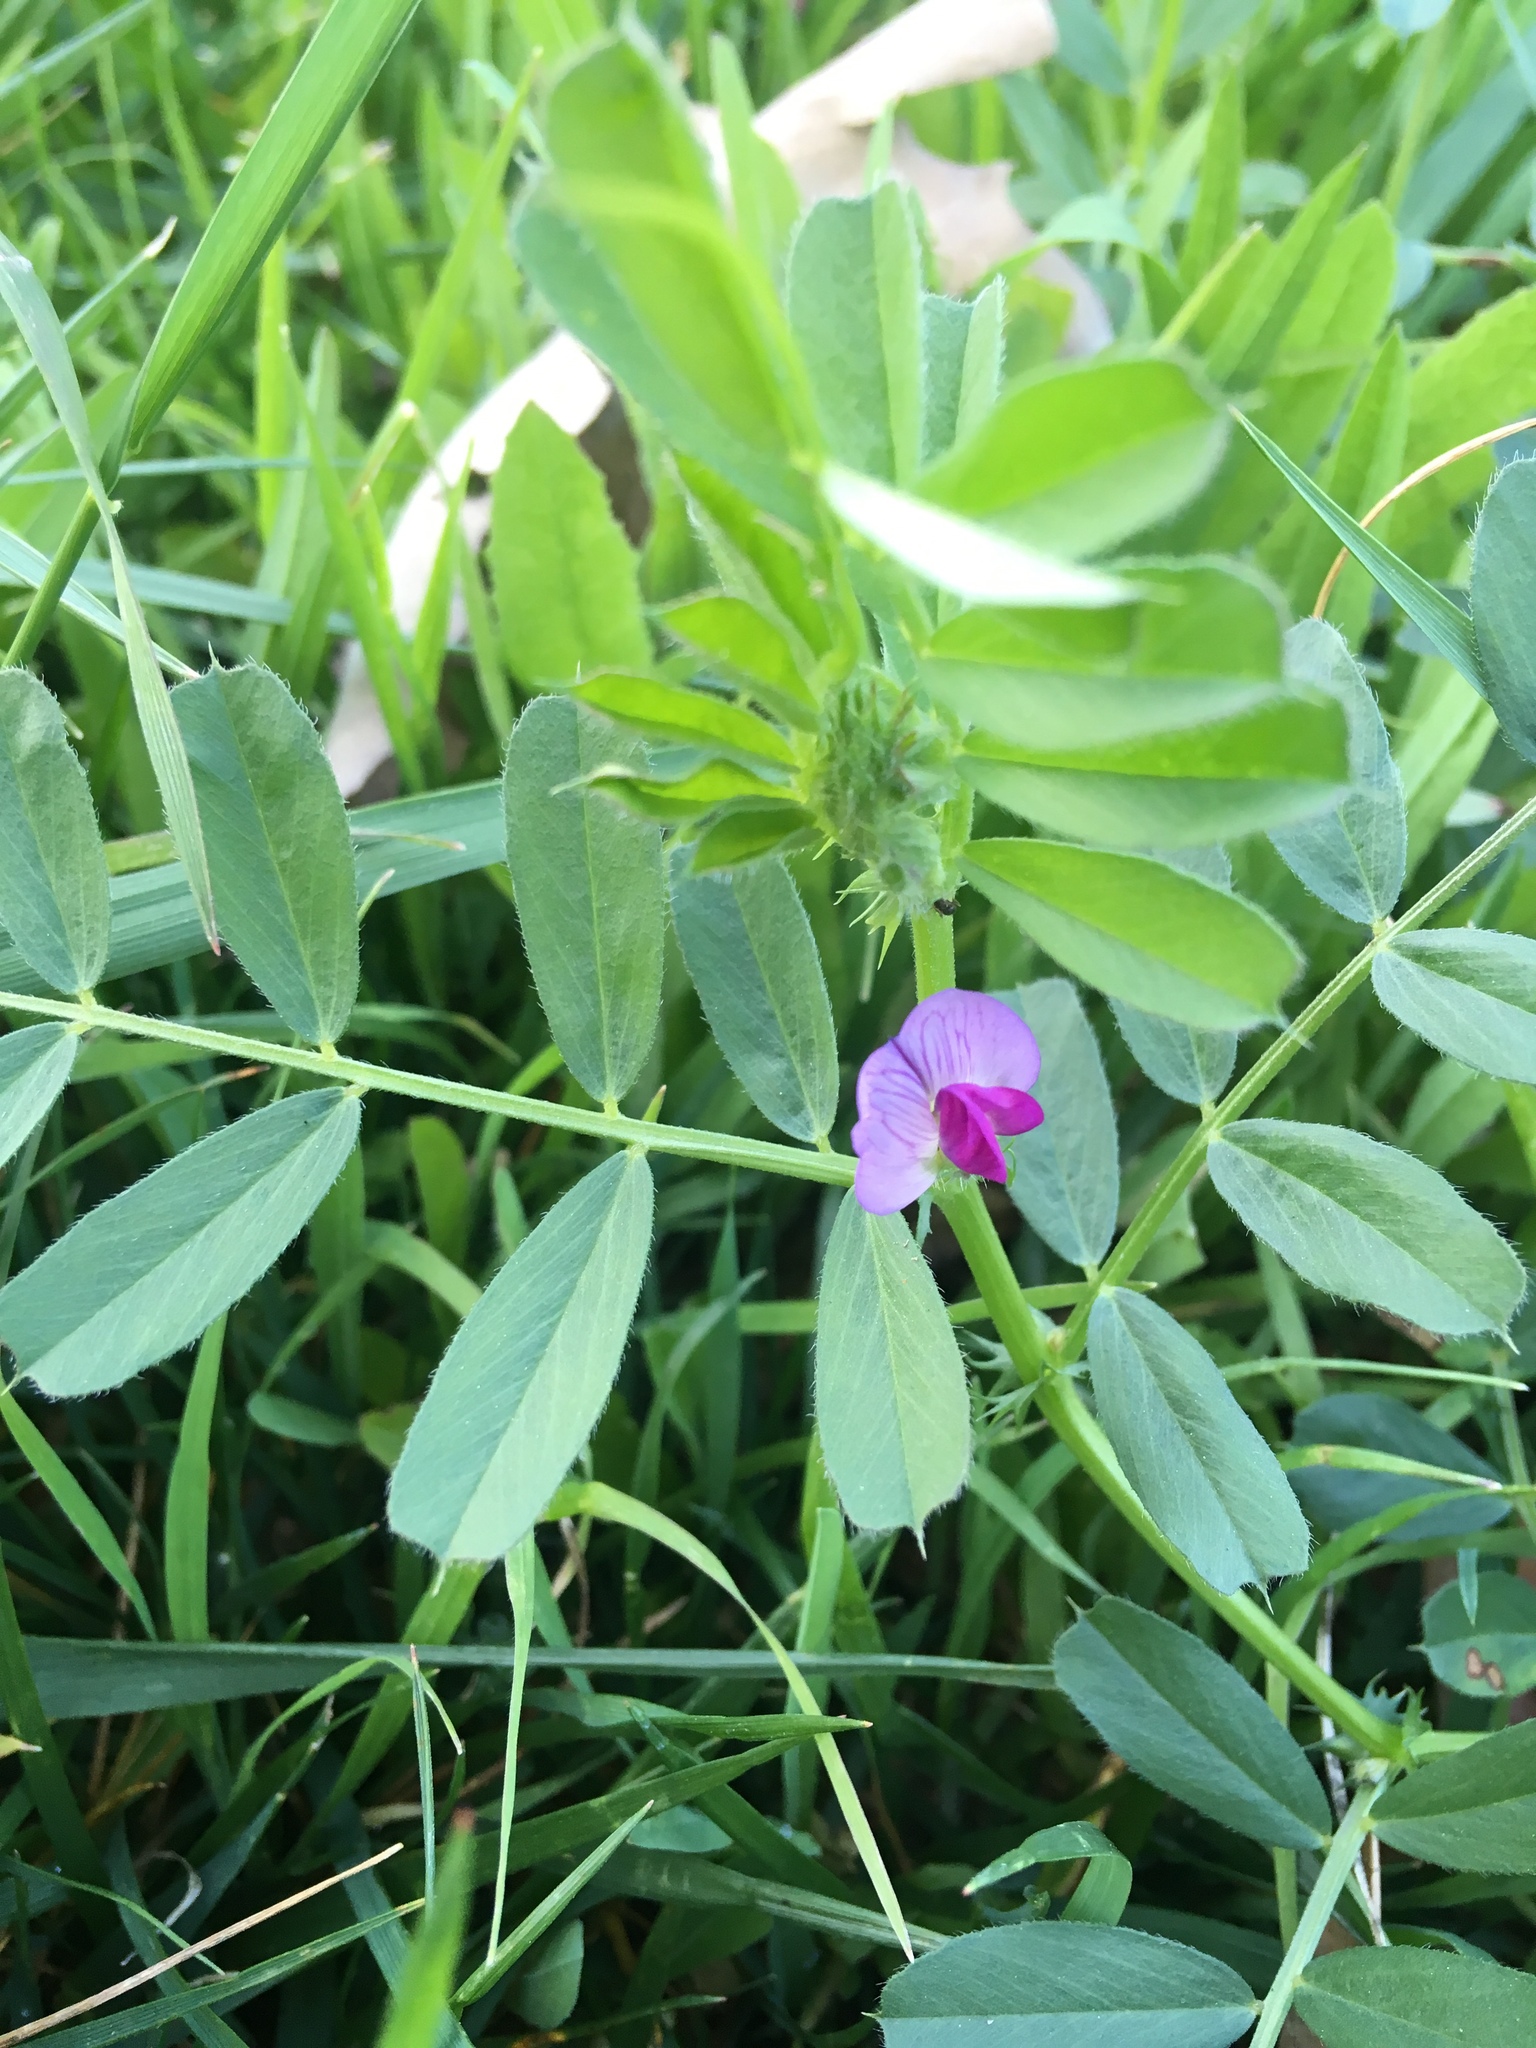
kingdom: Plantae
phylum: Tracheophyta
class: Magnoliopsida
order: Fabales
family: Fabaceae
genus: Vicia
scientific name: Vicia sativa
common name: Garden vetch
